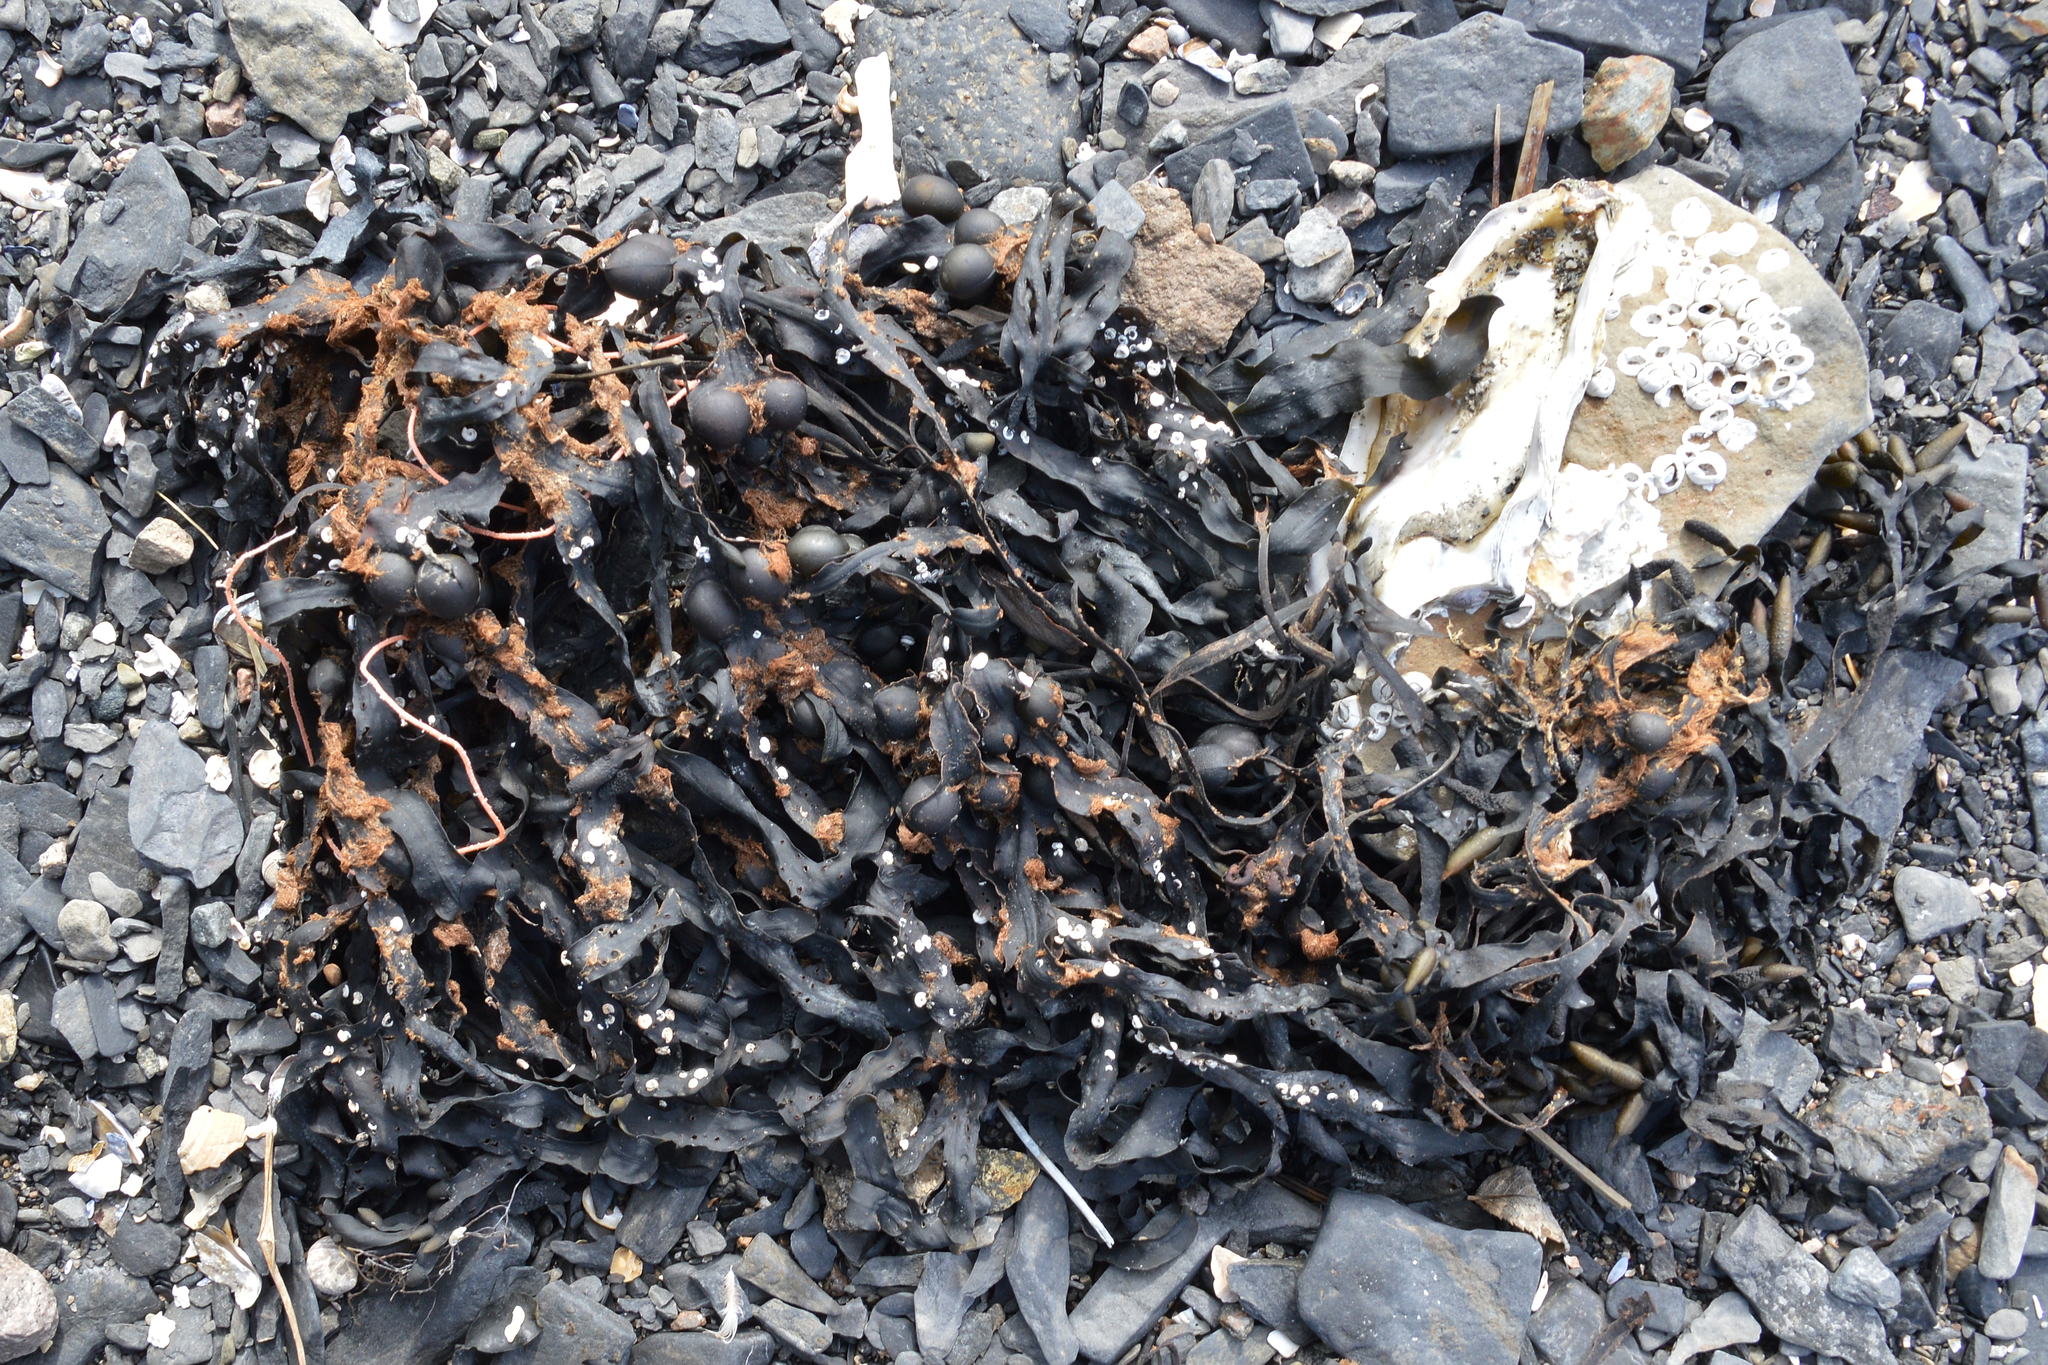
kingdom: Chromista
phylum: Ochrophyta
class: Phaeophyceae
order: Fucales
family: Fucaceae
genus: Fucus
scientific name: Fucus vesiculosus
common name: Bladder wrack
